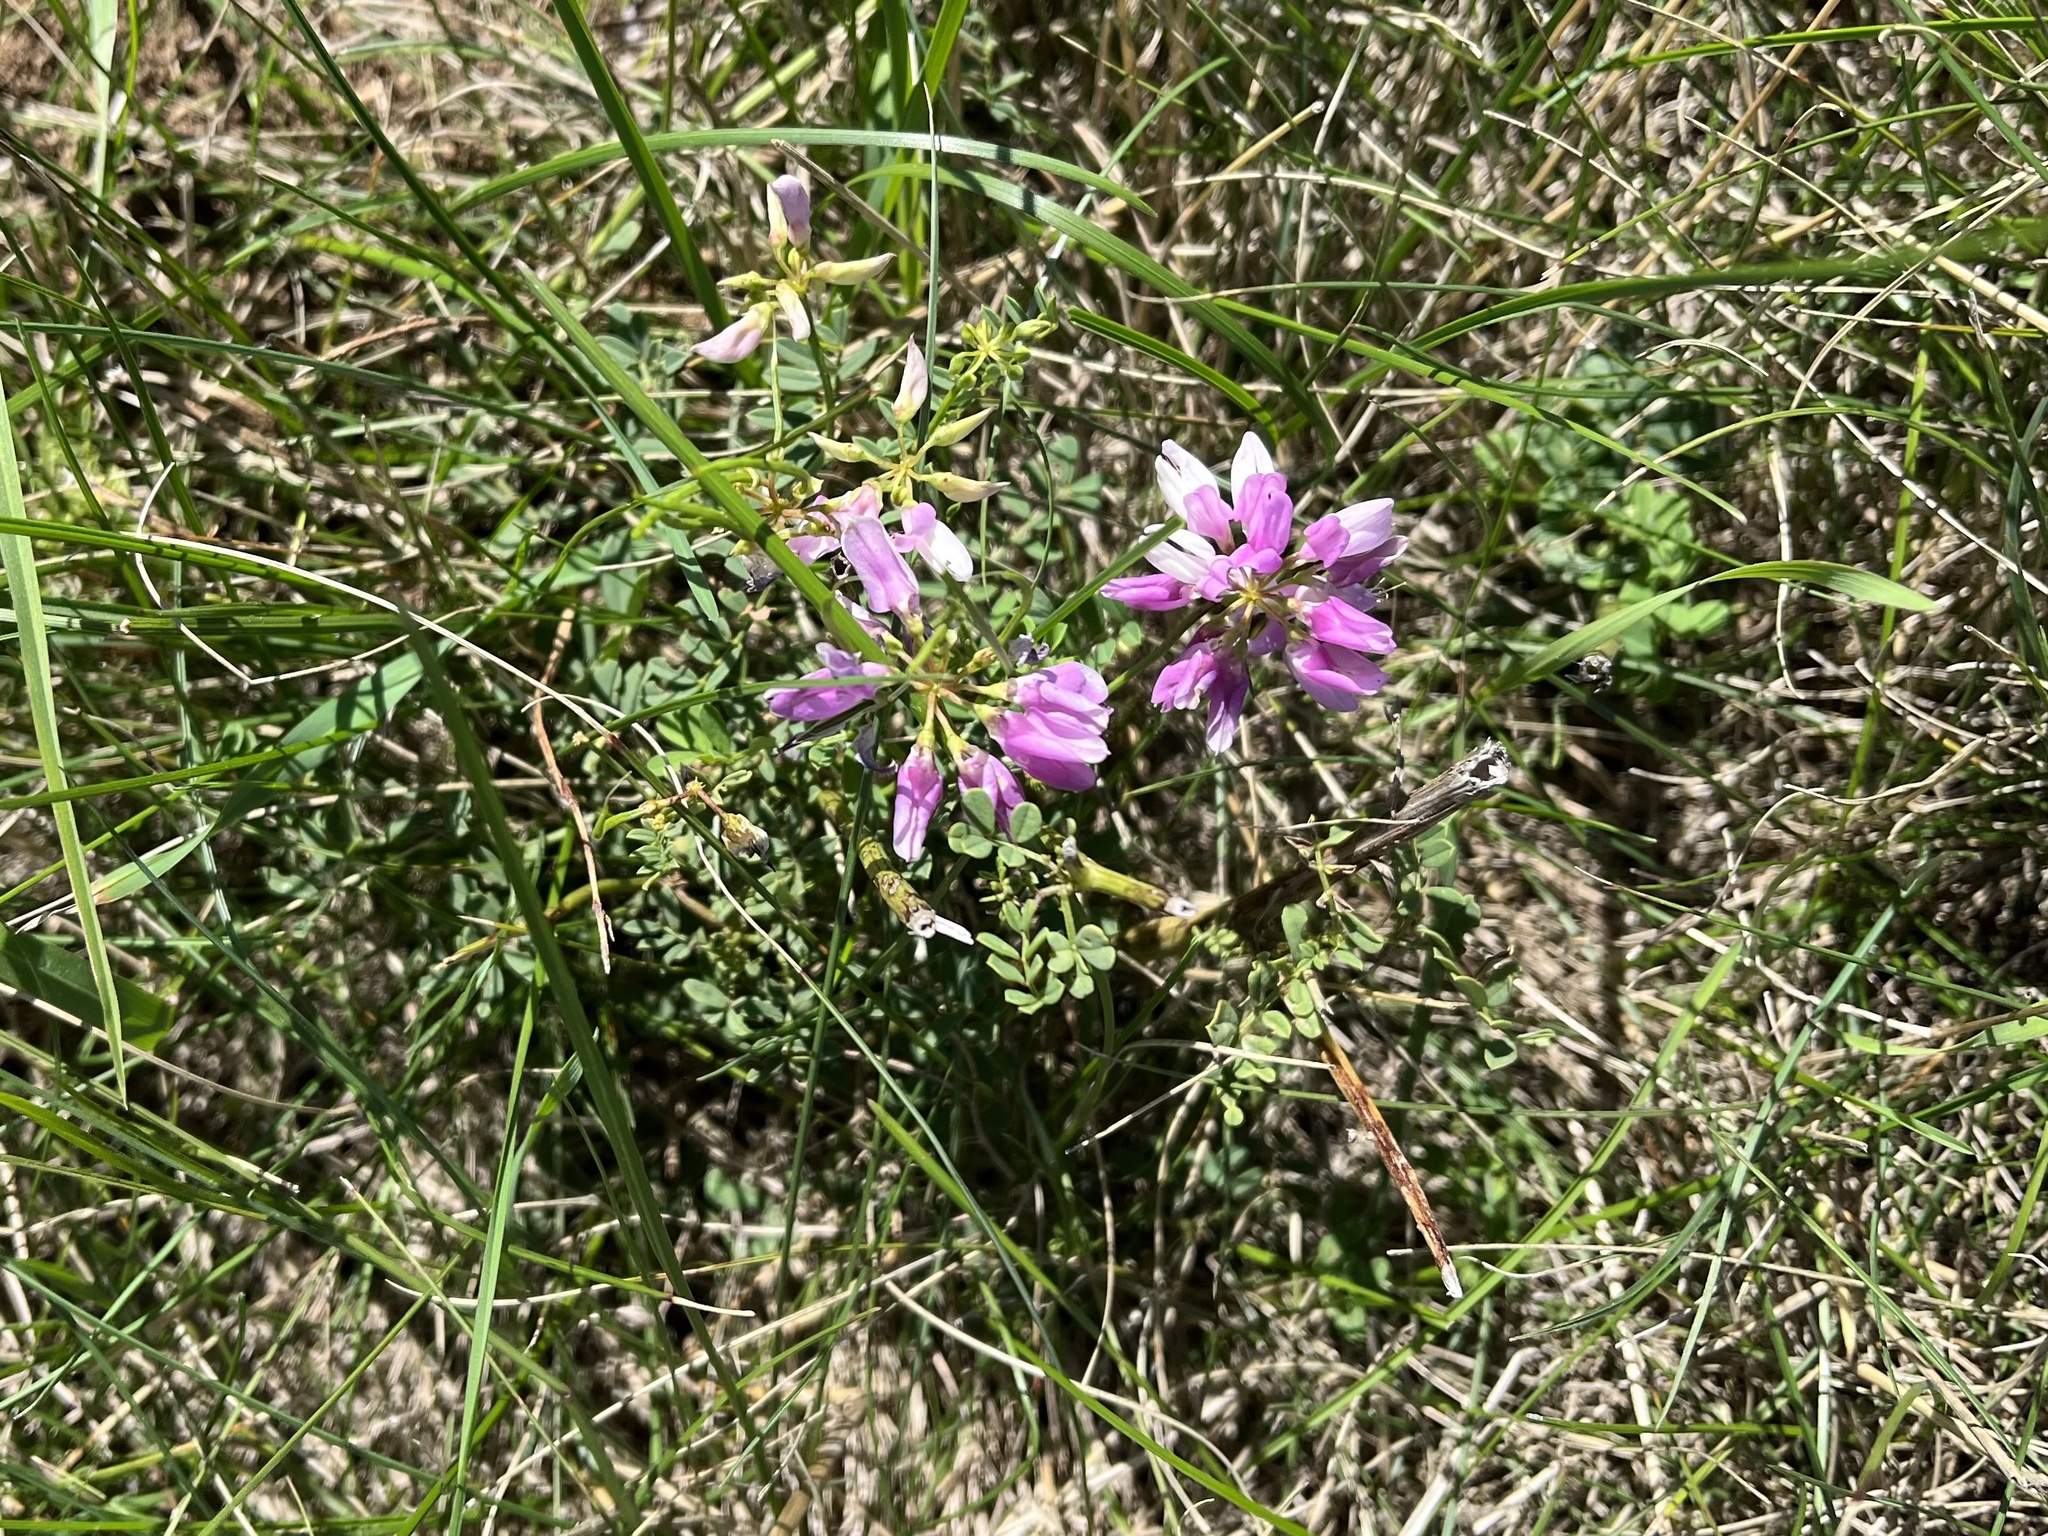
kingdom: Plantae
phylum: Tracheophyta
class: Magnoliopsida
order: Fabales
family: Fabaceae
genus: Coronilla
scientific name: Coronilla varia
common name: Crownvetch
